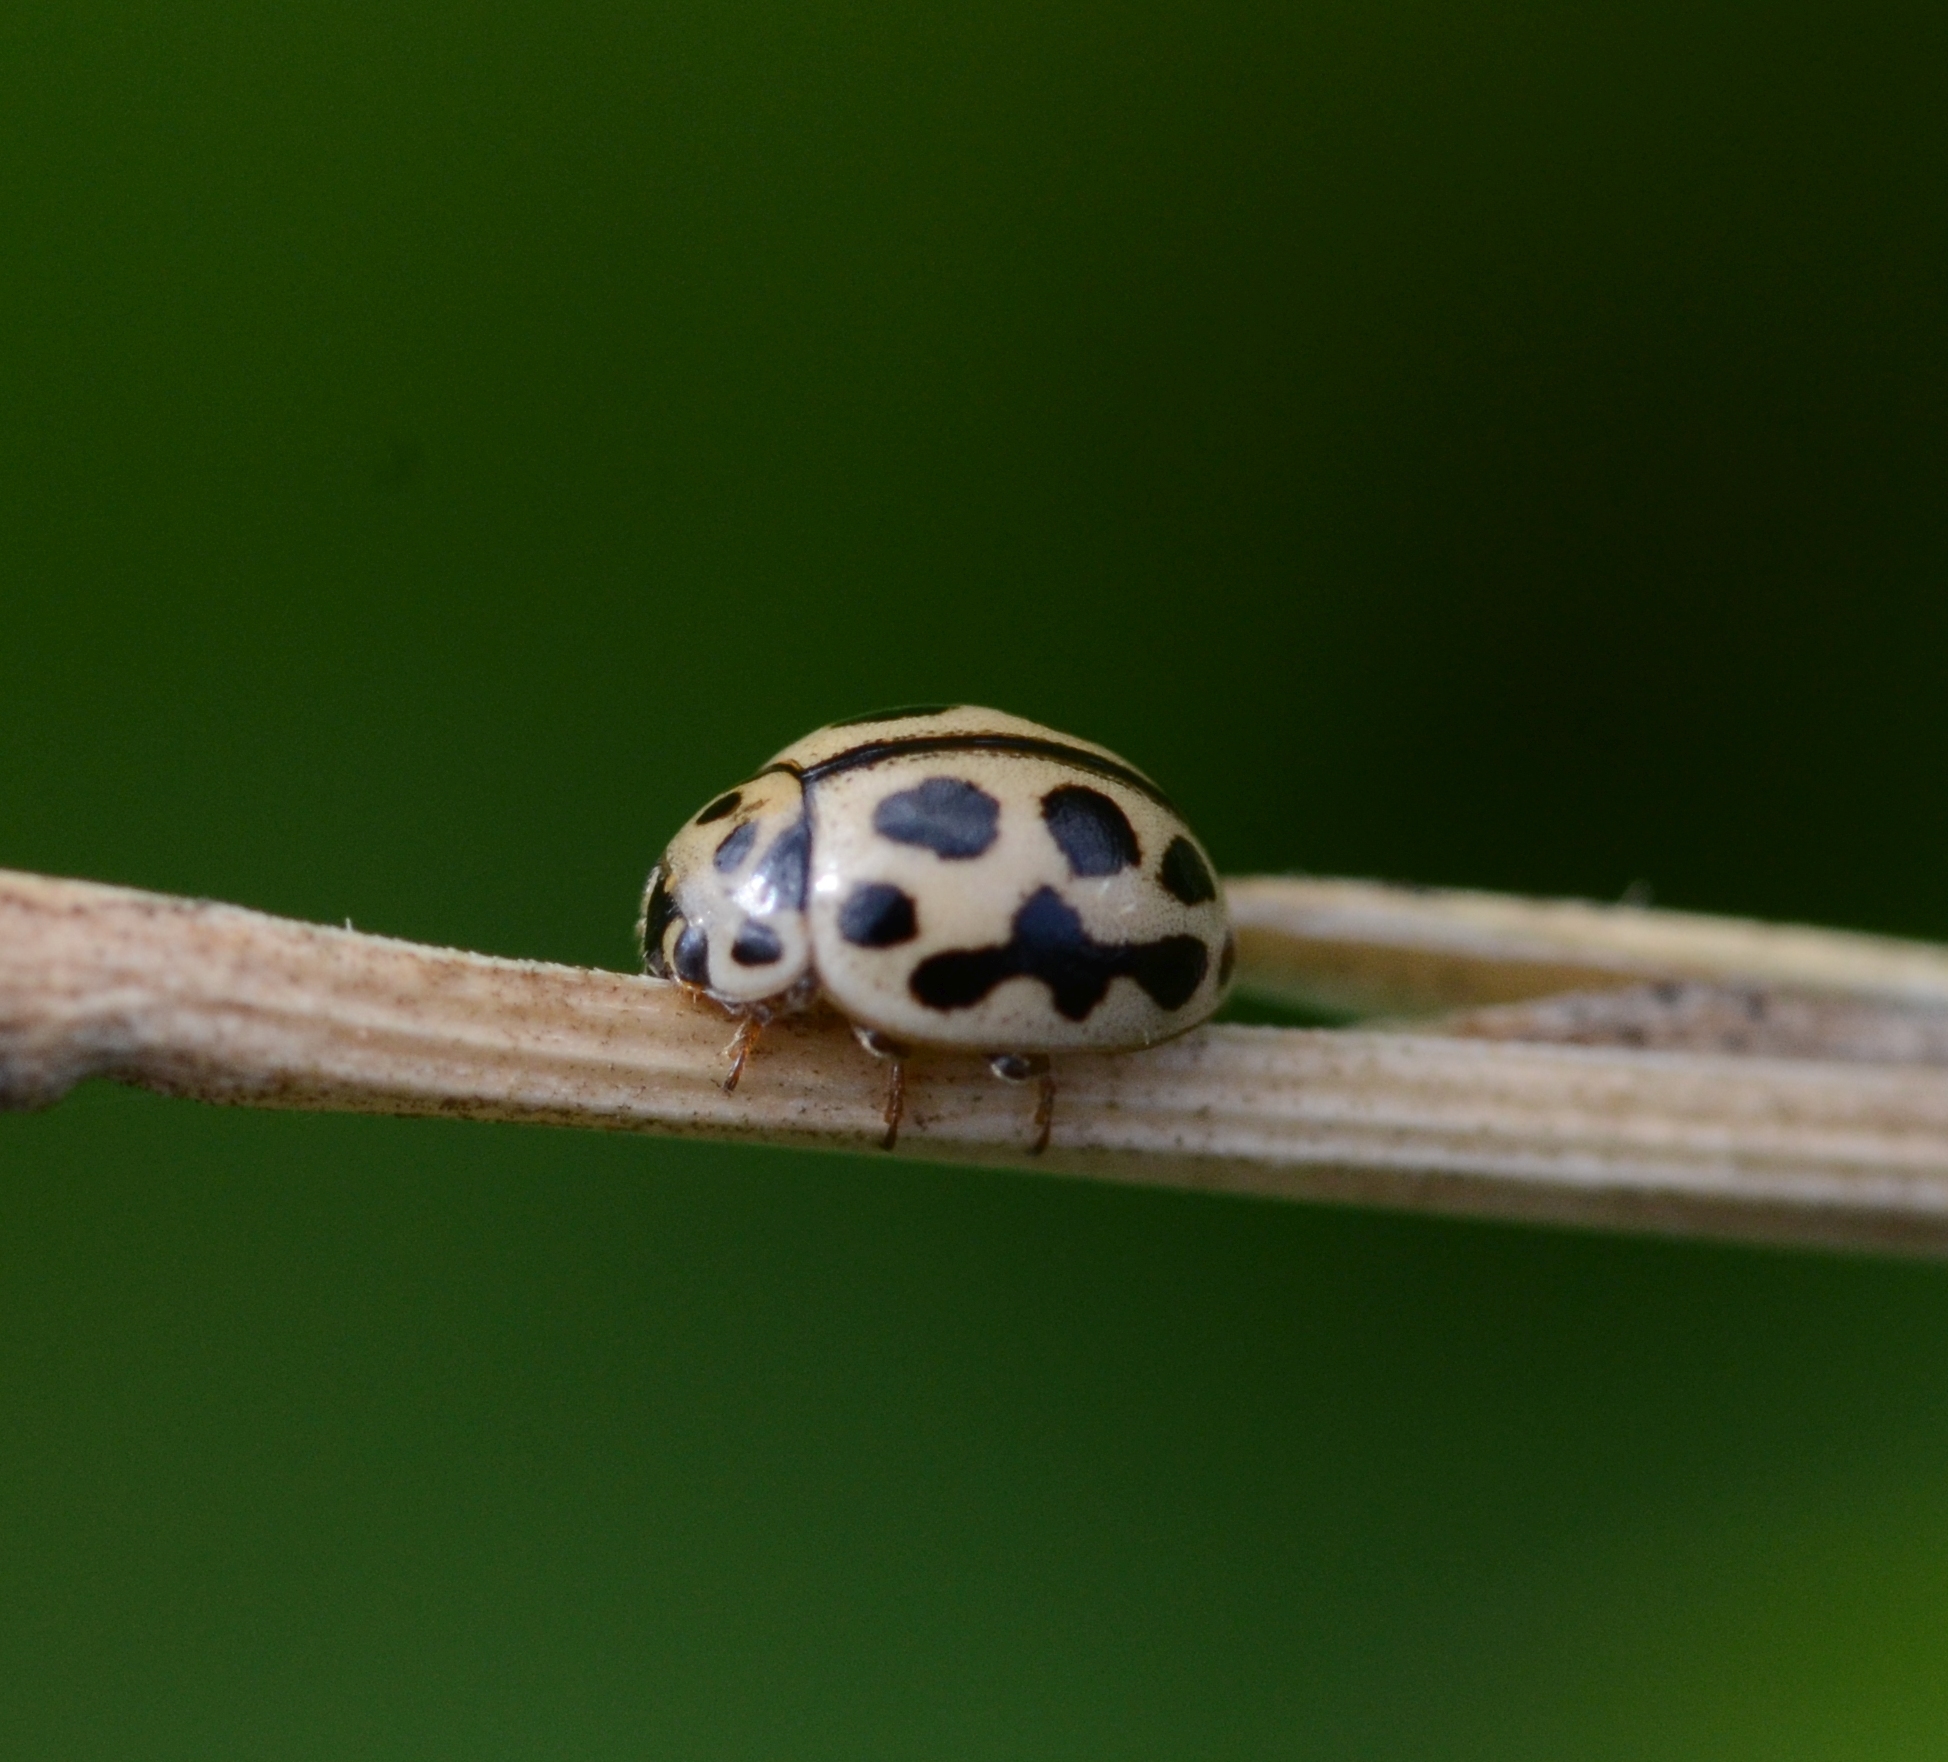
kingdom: Animalia
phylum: Arthropoda
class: Insecta
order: Coleoptera
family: Coccinellidae
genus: Tytthaspis
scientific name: Tytthaspis sedecimpunctata
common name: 16-spot ladybird
